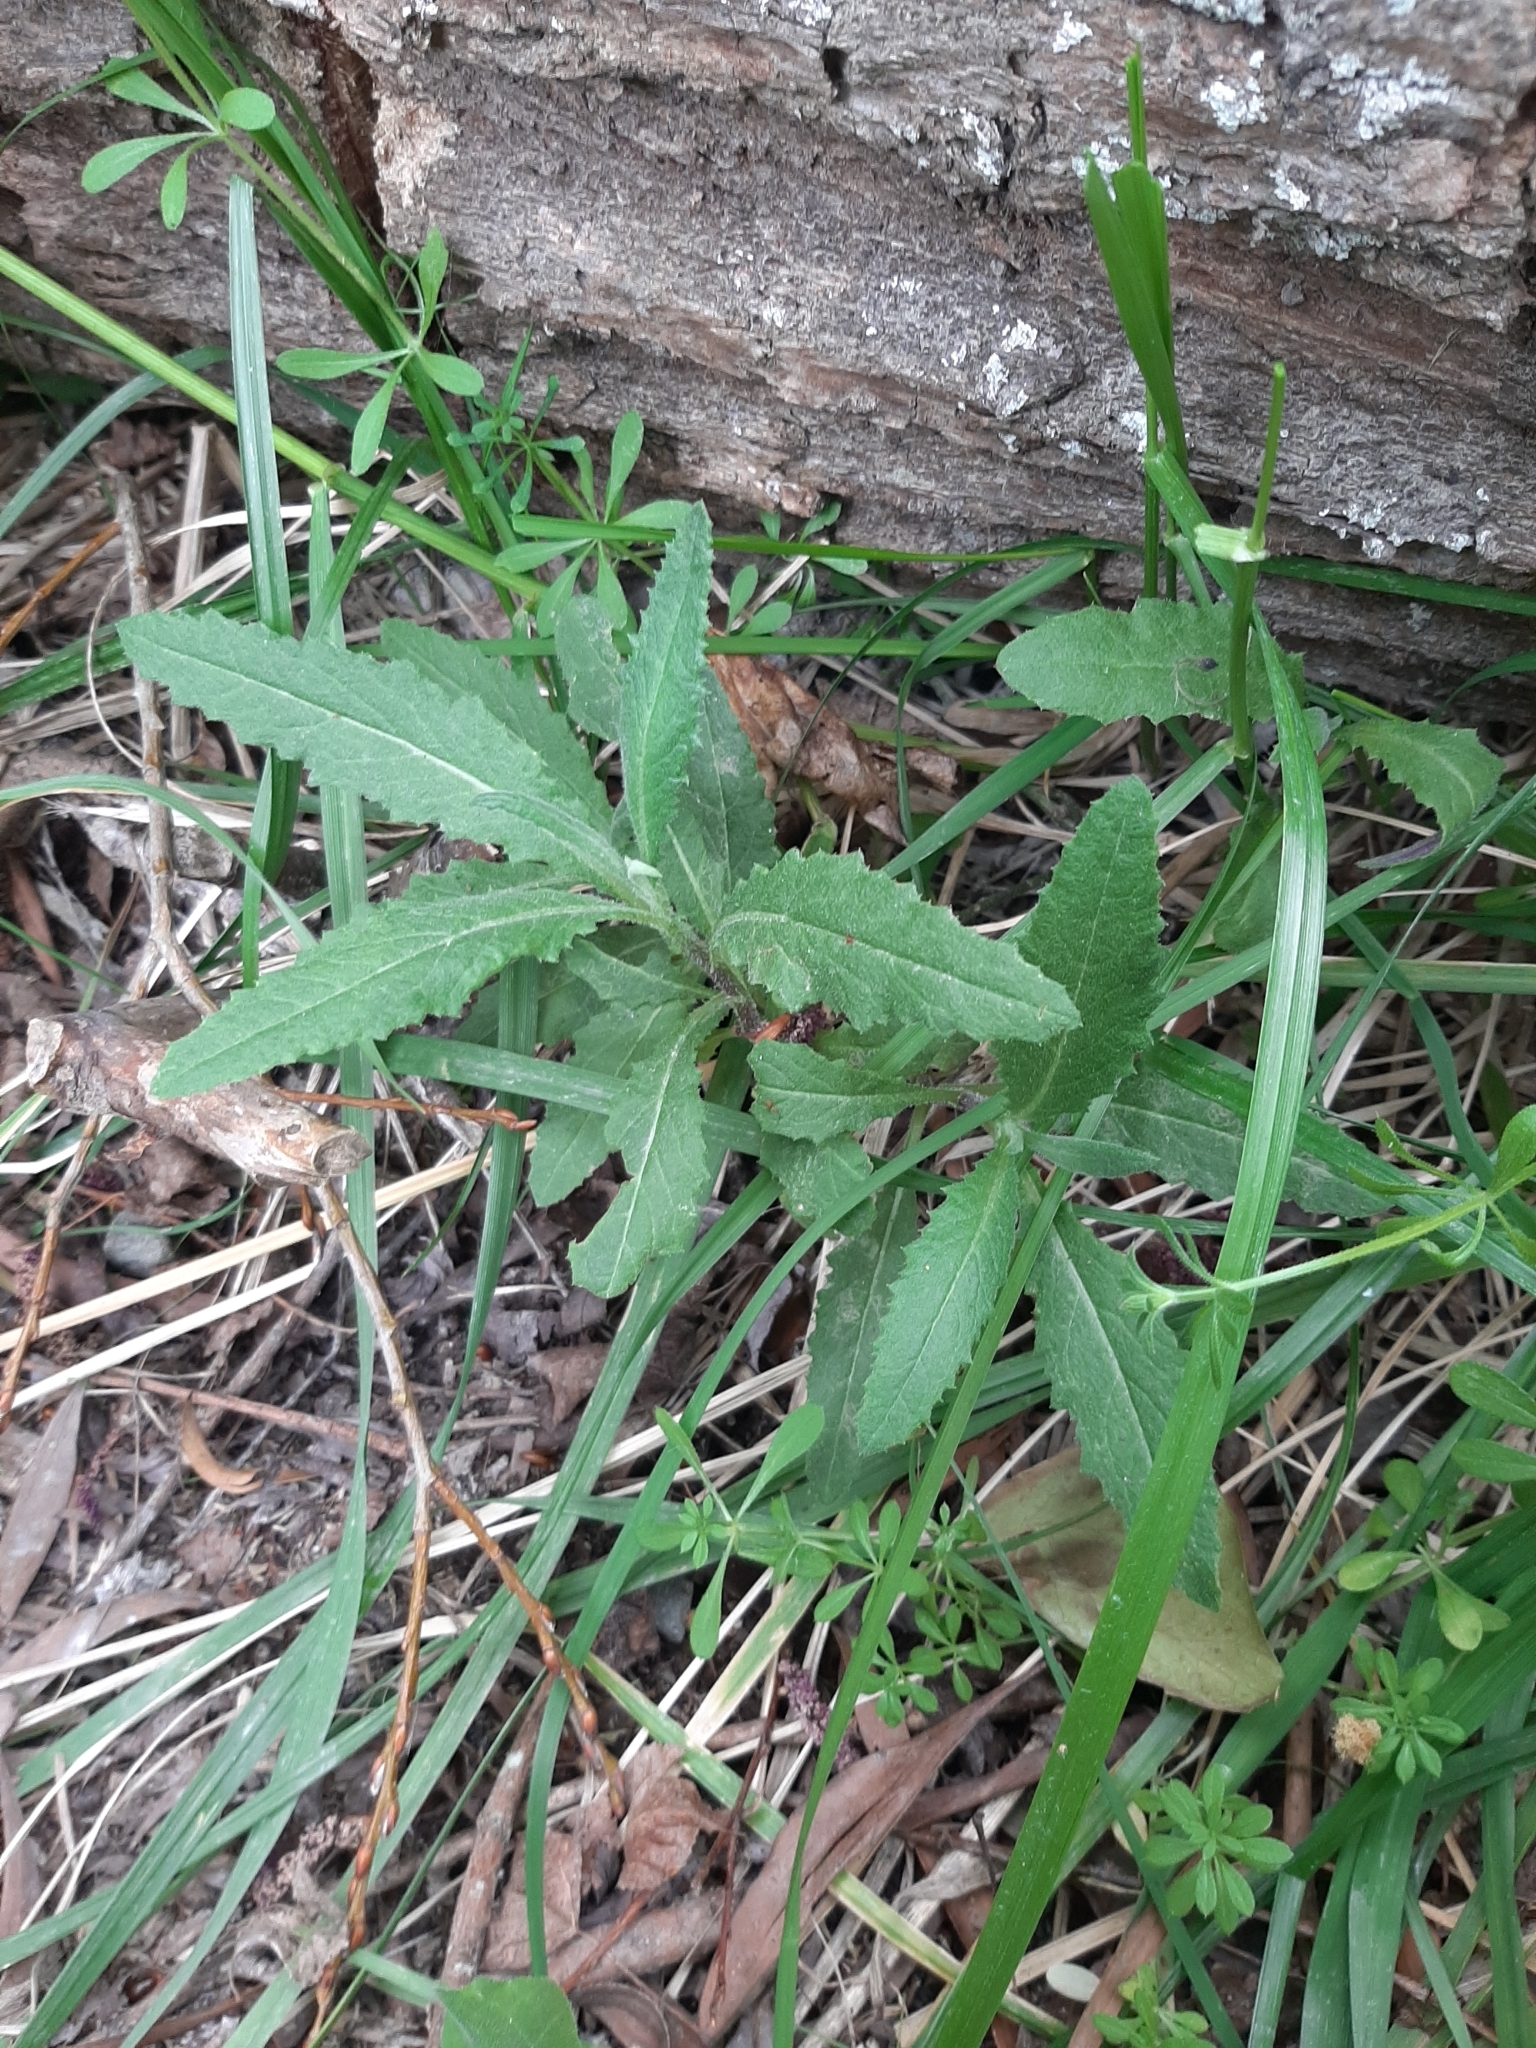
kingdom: Plantae
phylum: Tracheophyta
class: Magnoliopsida
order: Asterales
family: Asteraceae
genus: Senecio
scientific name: Senecio minimus
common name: Toothed fireweed
